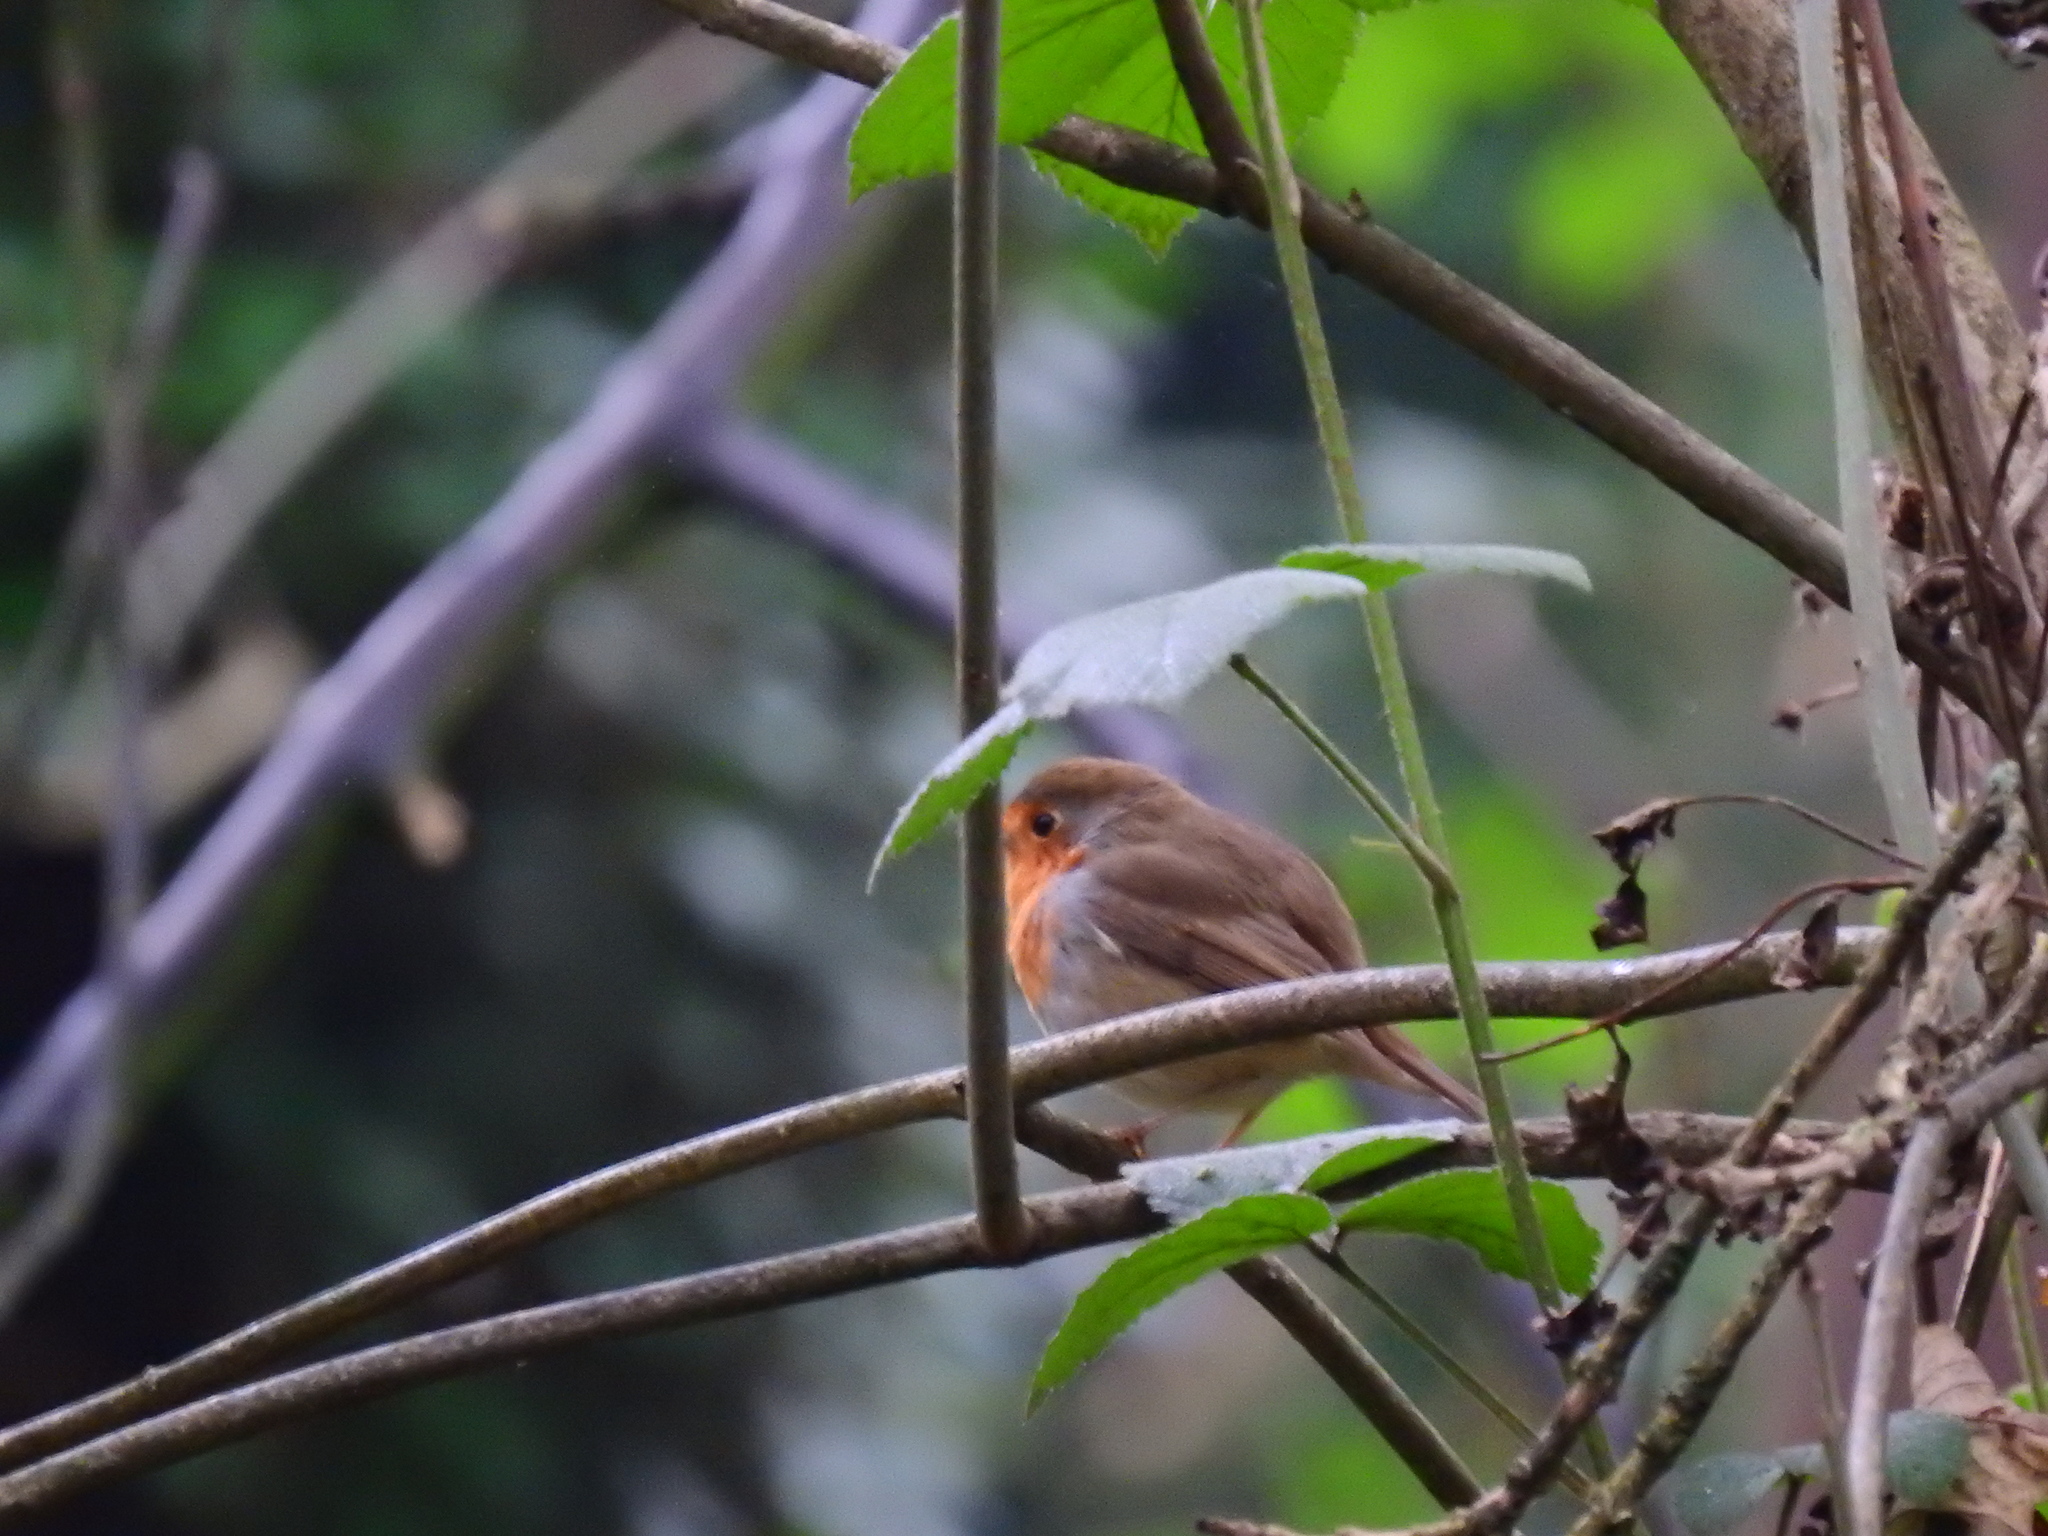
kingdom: Animalia
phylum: Chordata
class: Aves
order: Passeriformes
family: Muscicapidae
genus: Erithacus
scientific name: Erithacus rubecula
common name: European robin
